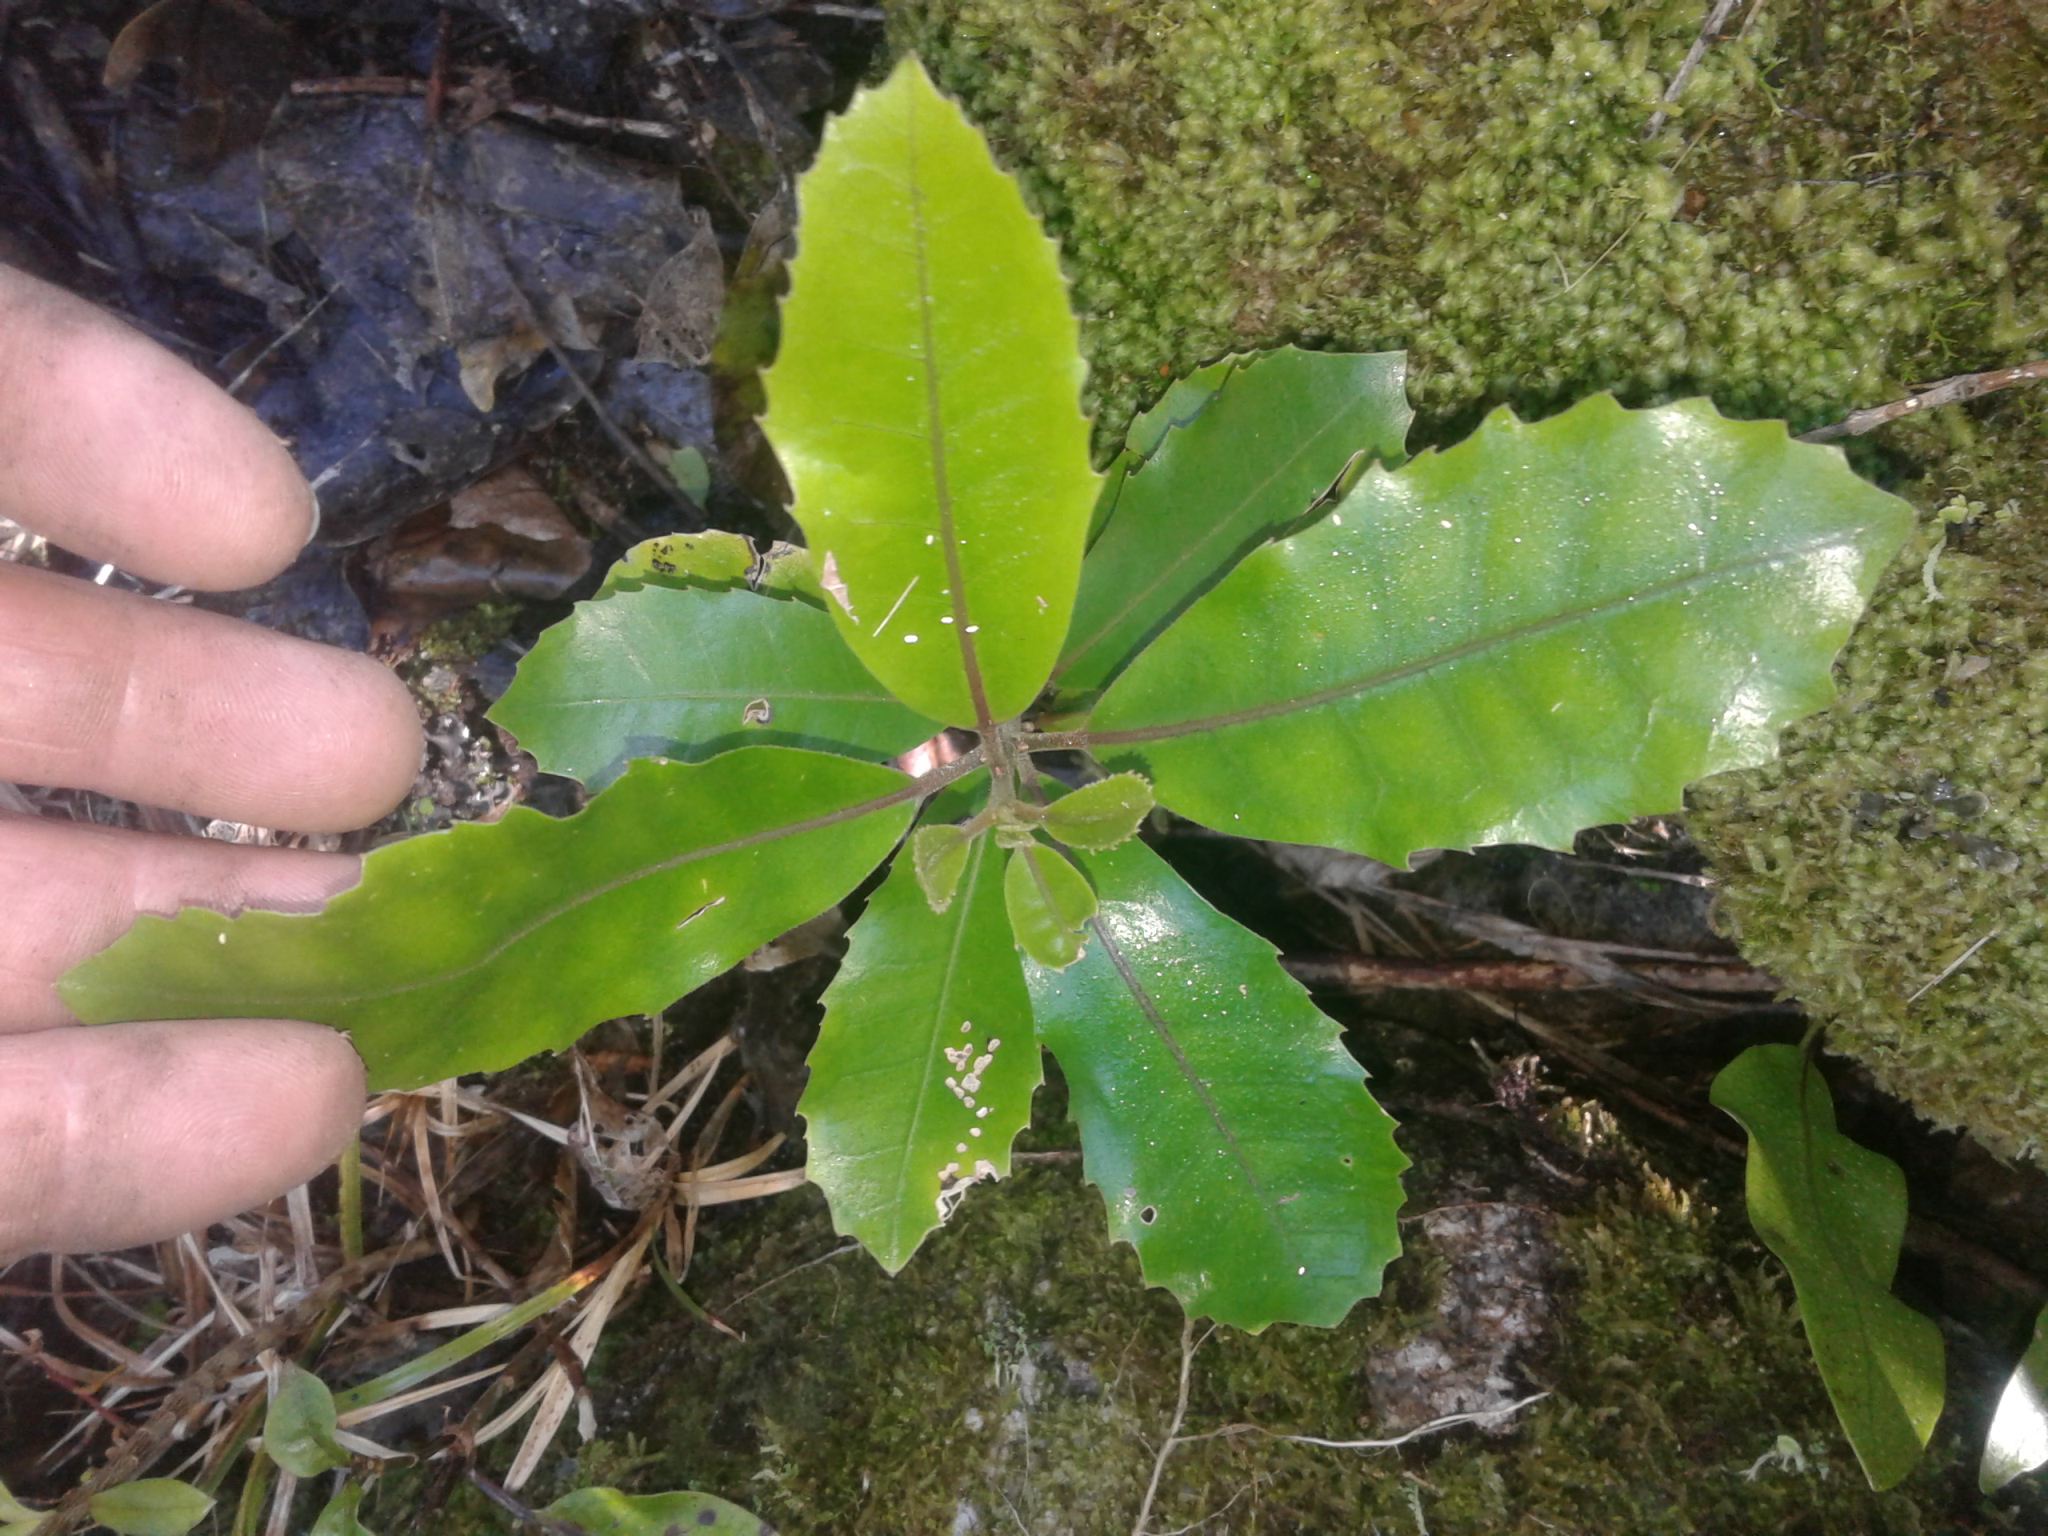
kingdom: Plantae
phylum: Tracheophyta
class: Magnoliopsida
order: Laurales
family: Monimiaceae
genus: Hedycarya
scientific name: Hedycarya arborea
